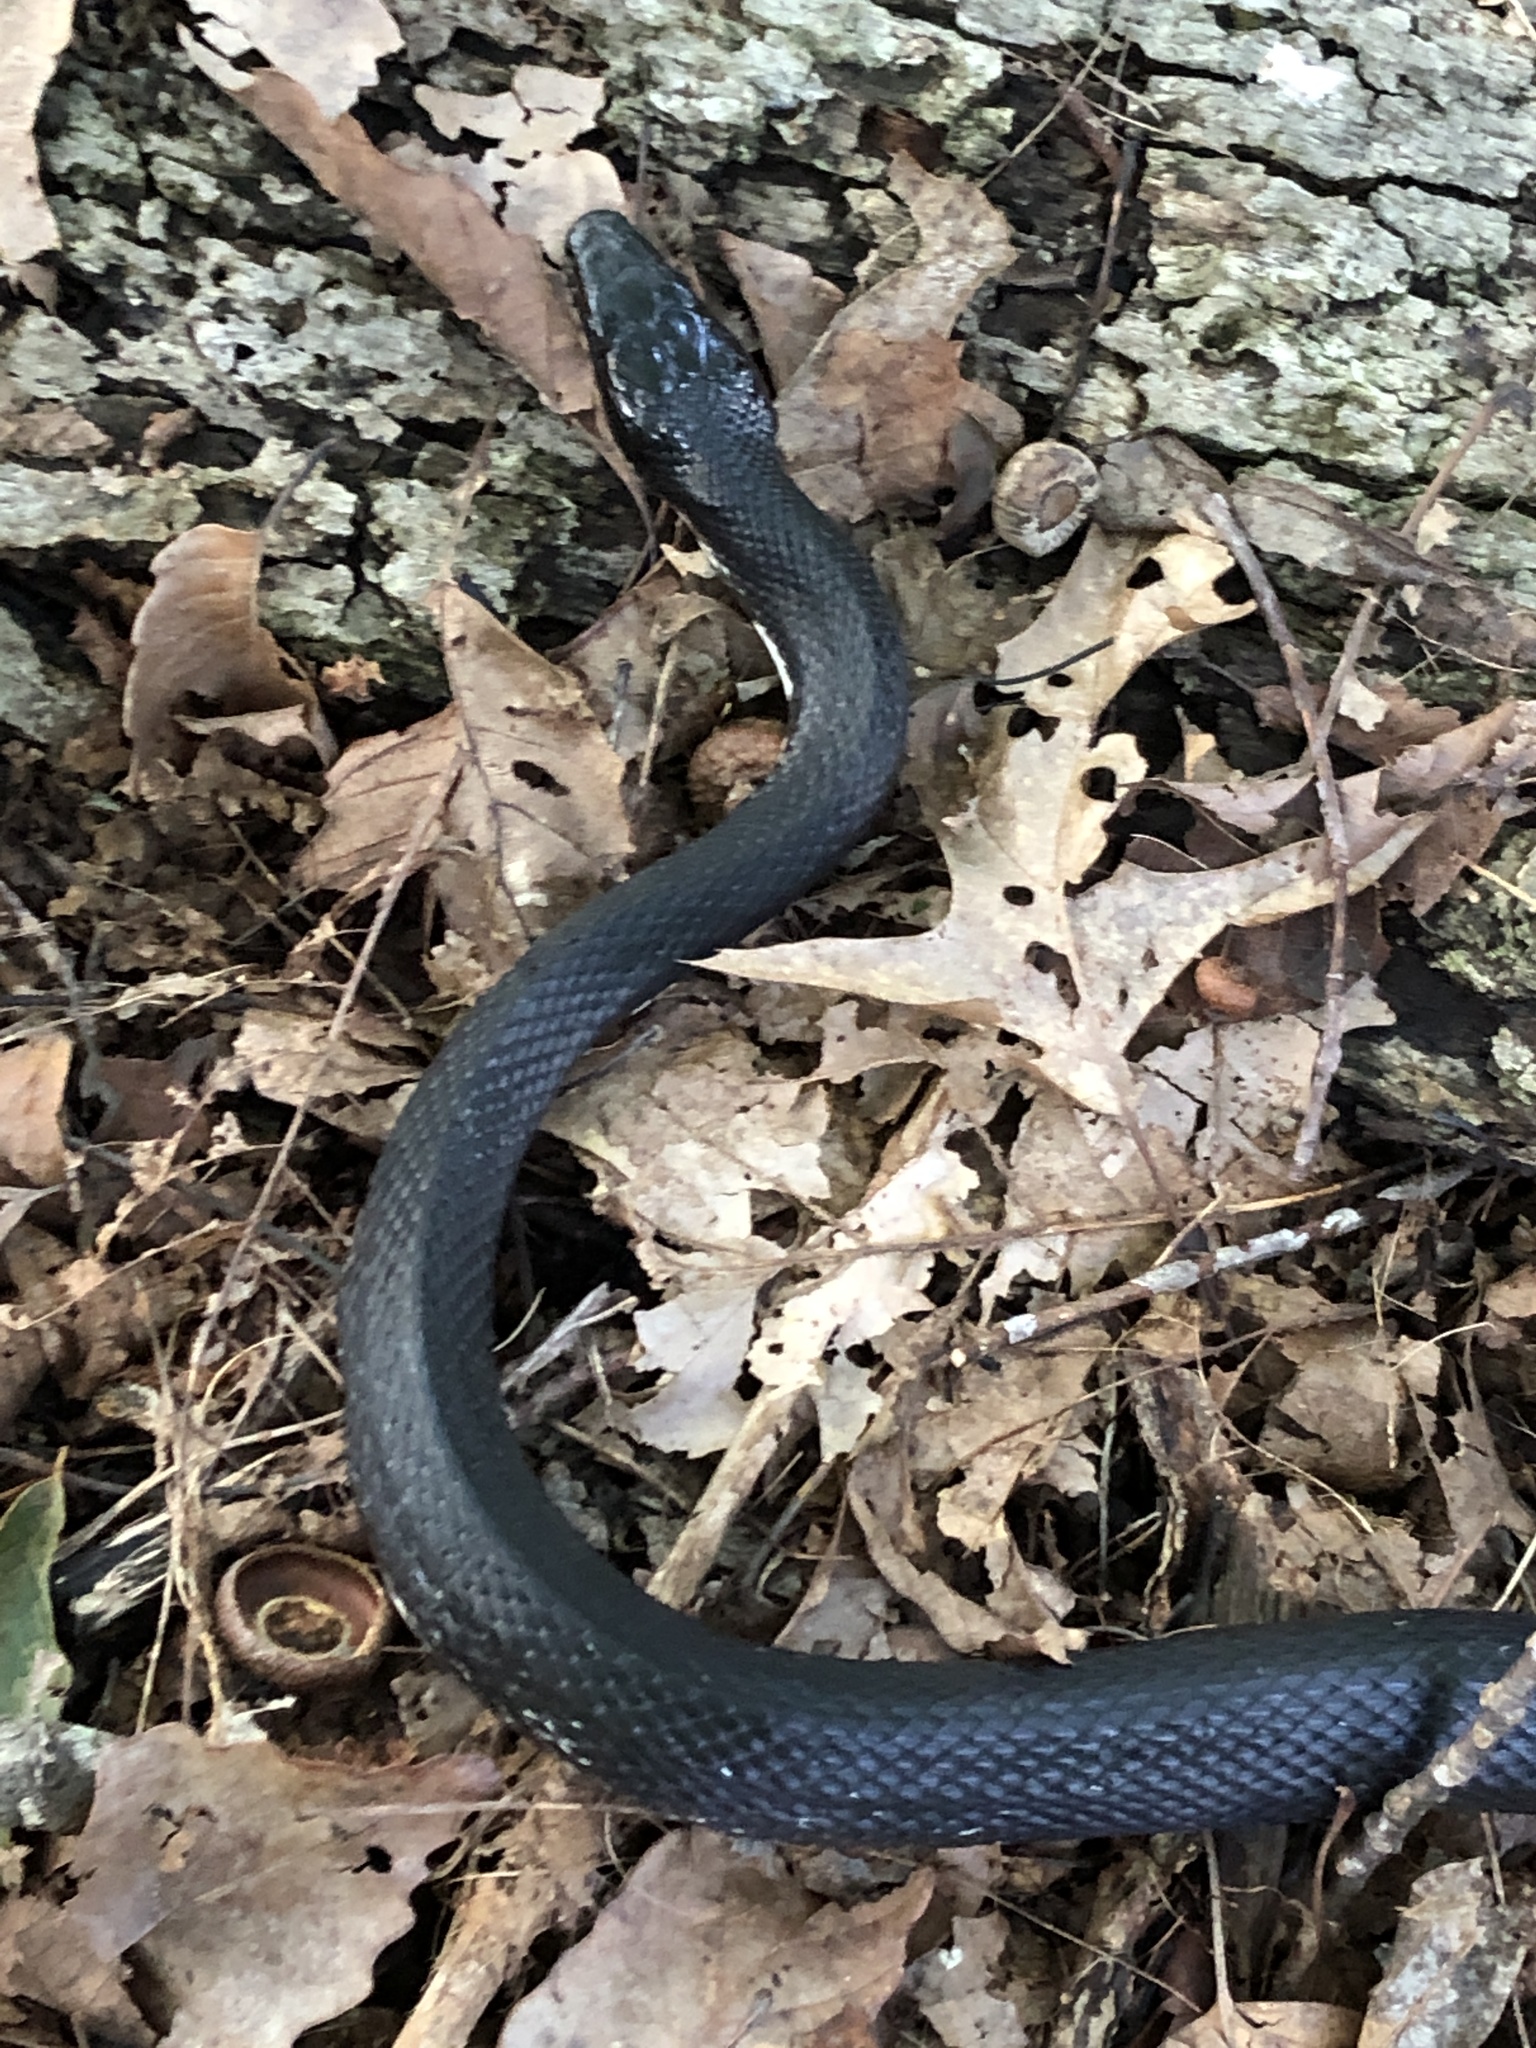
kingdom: Animalia
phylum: Chordata
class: Squamata
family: Colubridae
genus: Pantherophis
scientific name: Pantherophis alleghaniensis
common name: Eastern rat snake
